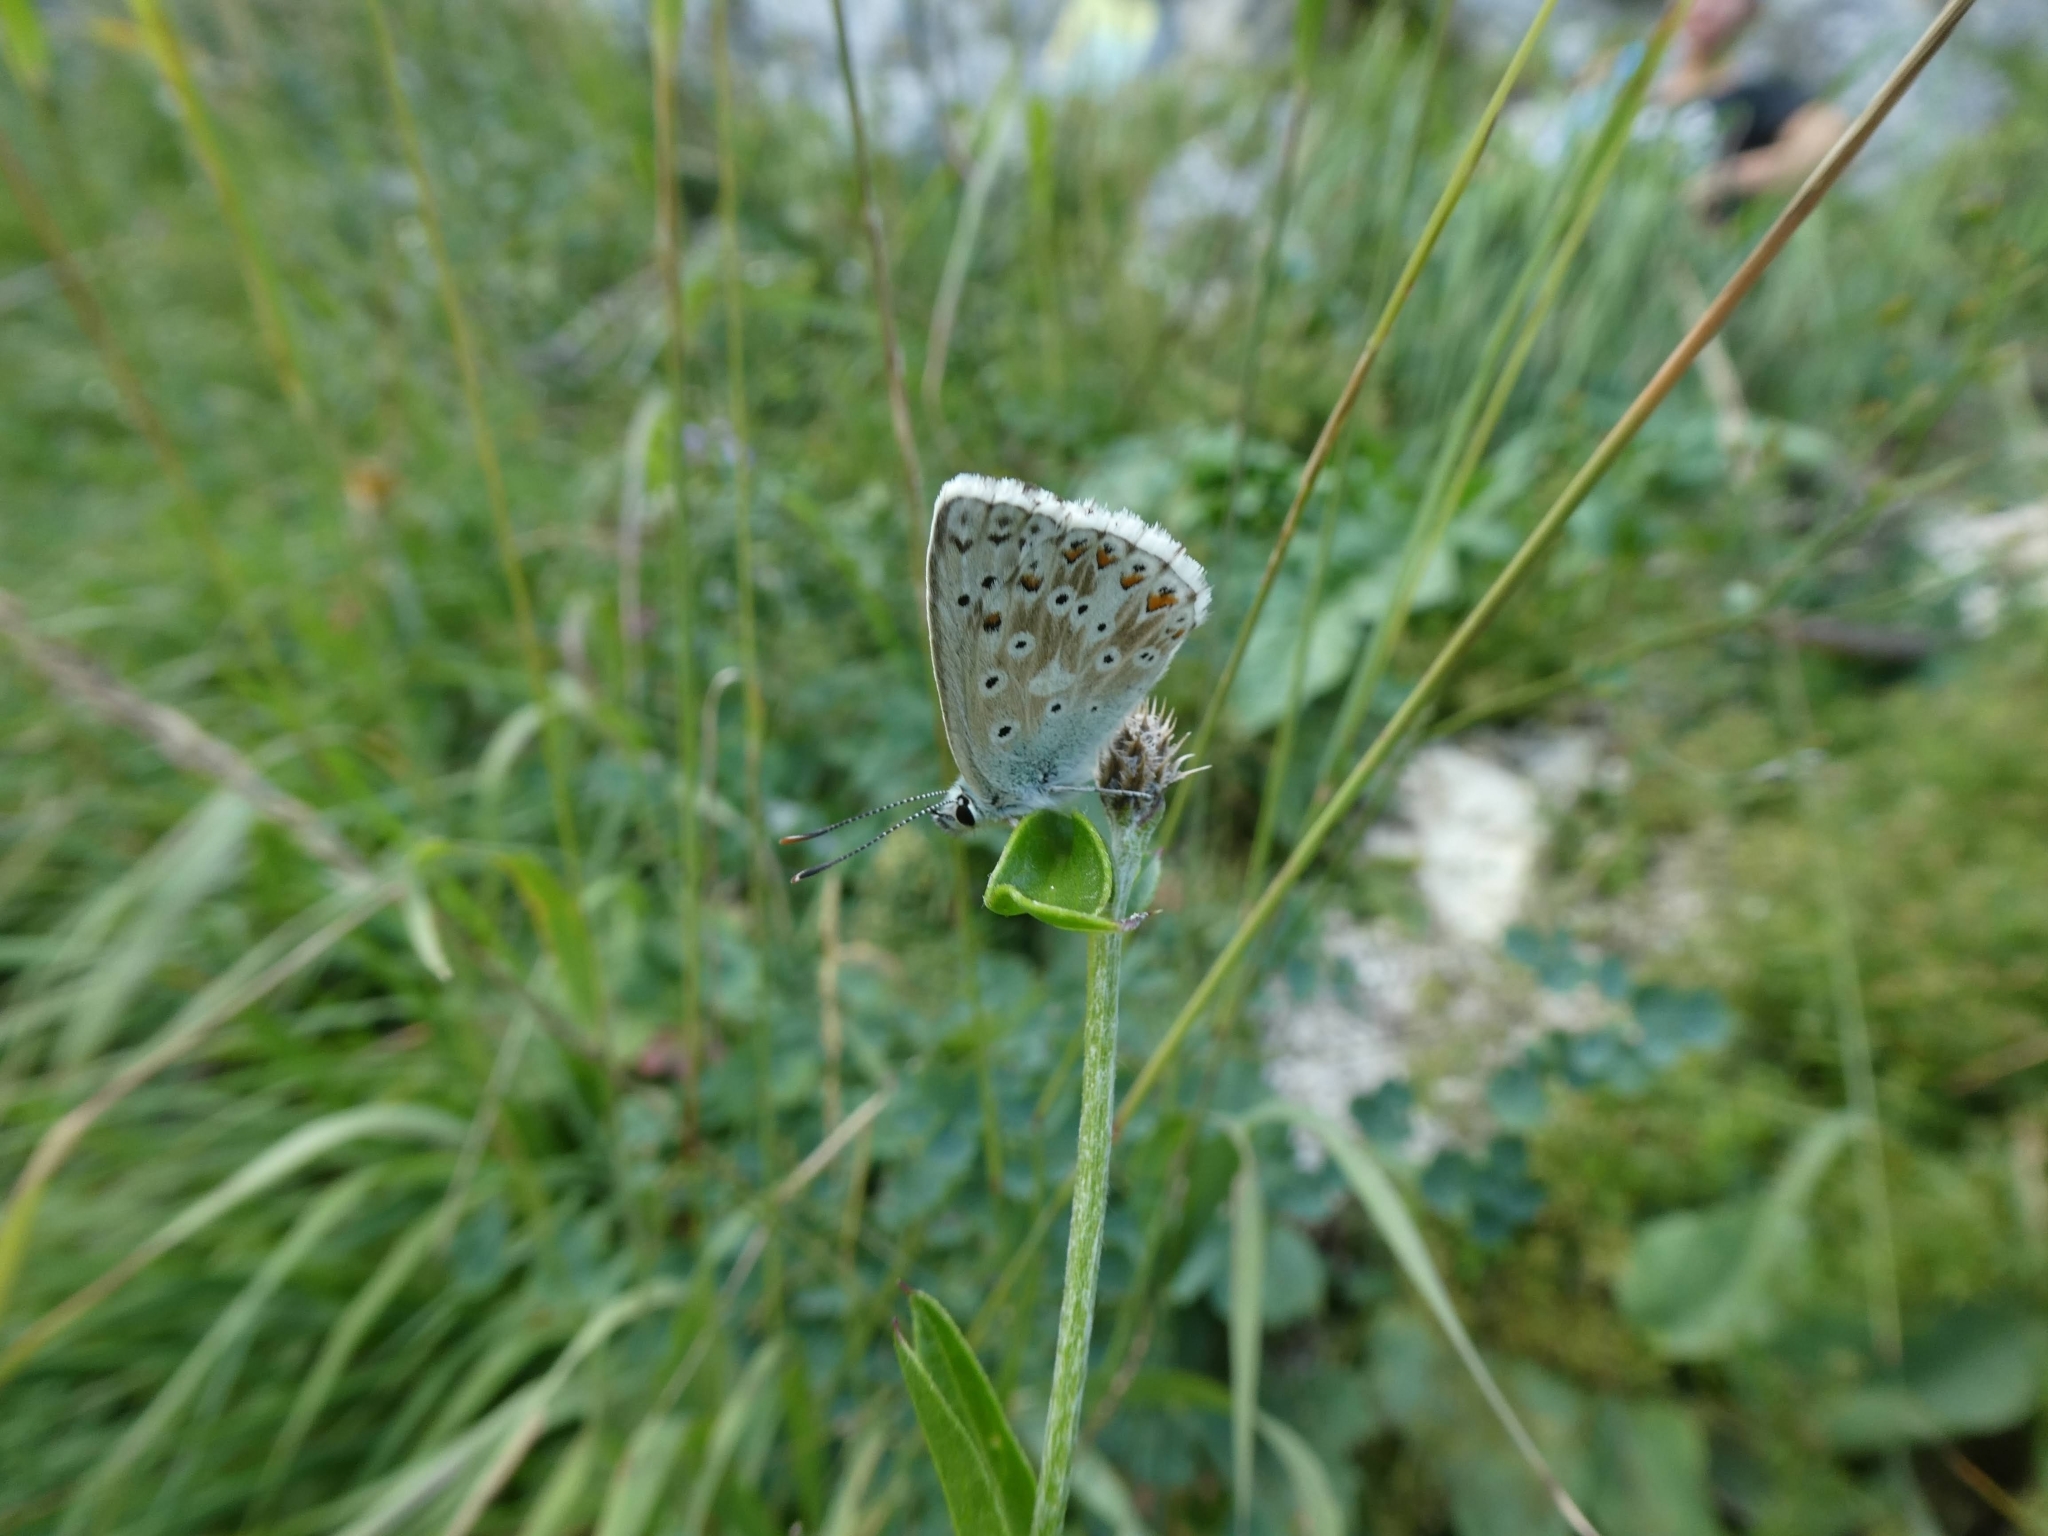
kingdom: Animalia
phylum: Arthropoda
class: Insecta
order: Lepidoptera
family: Lycaenidae
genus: Lysandra
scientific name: Lysandra coridon
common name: Chalkhill blue
